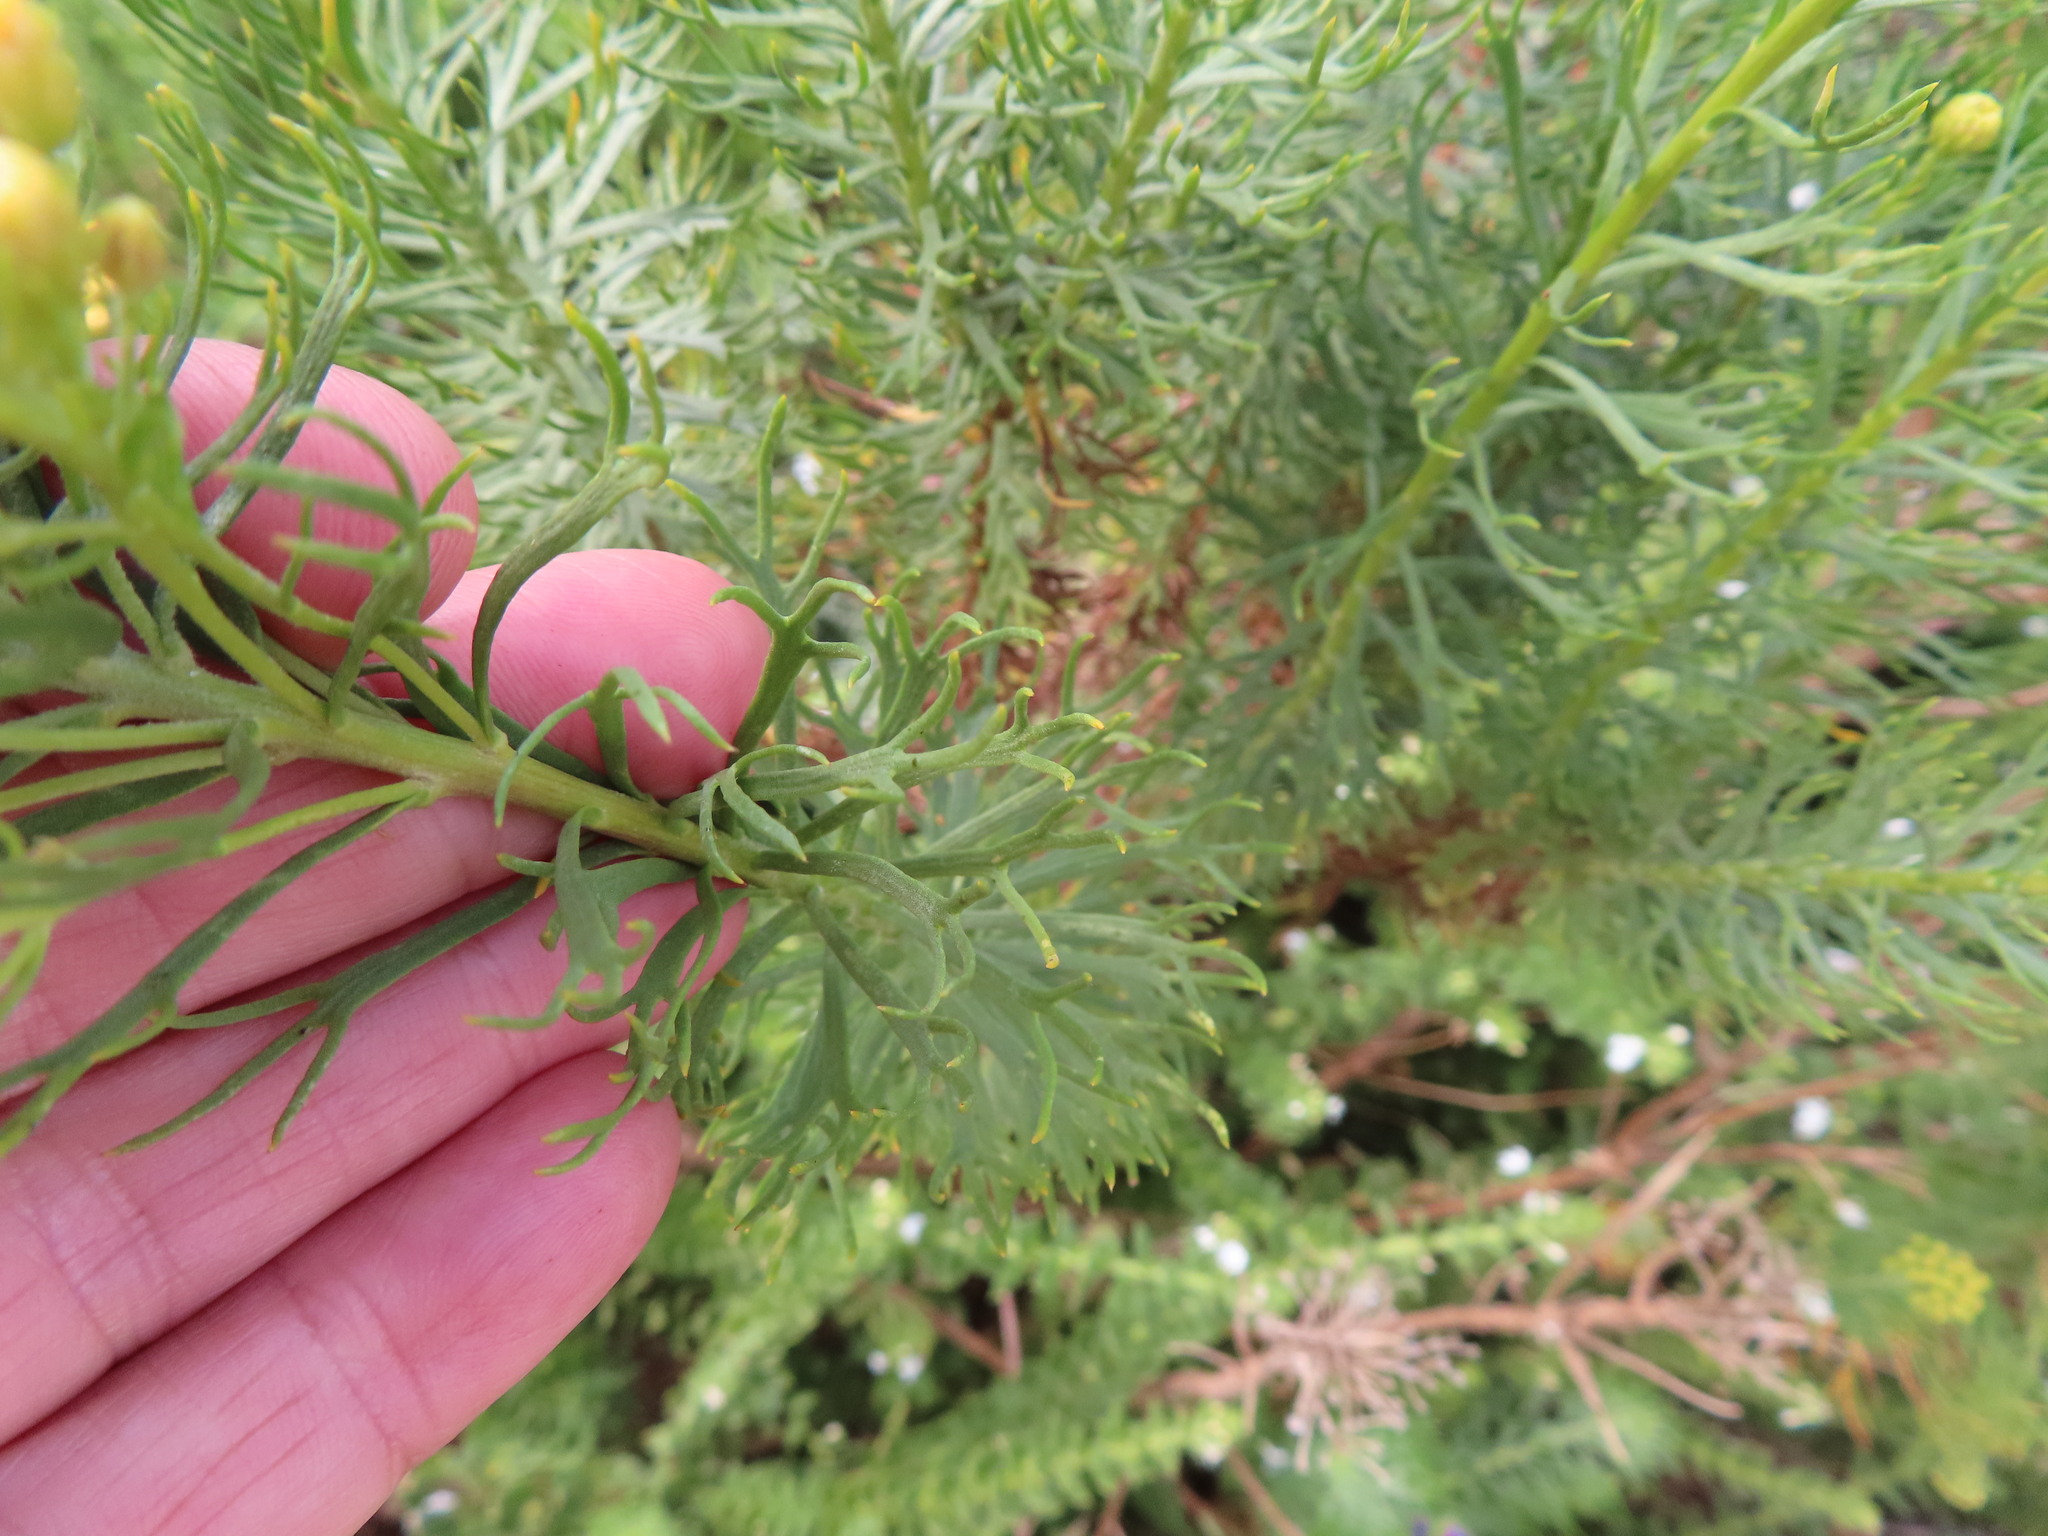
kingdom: Plantae
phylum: Tracheophyta
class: Magnoliopsida
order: Asterales
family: Asteraceae
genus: Athanasia
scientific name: Athanasia crithmifolia
